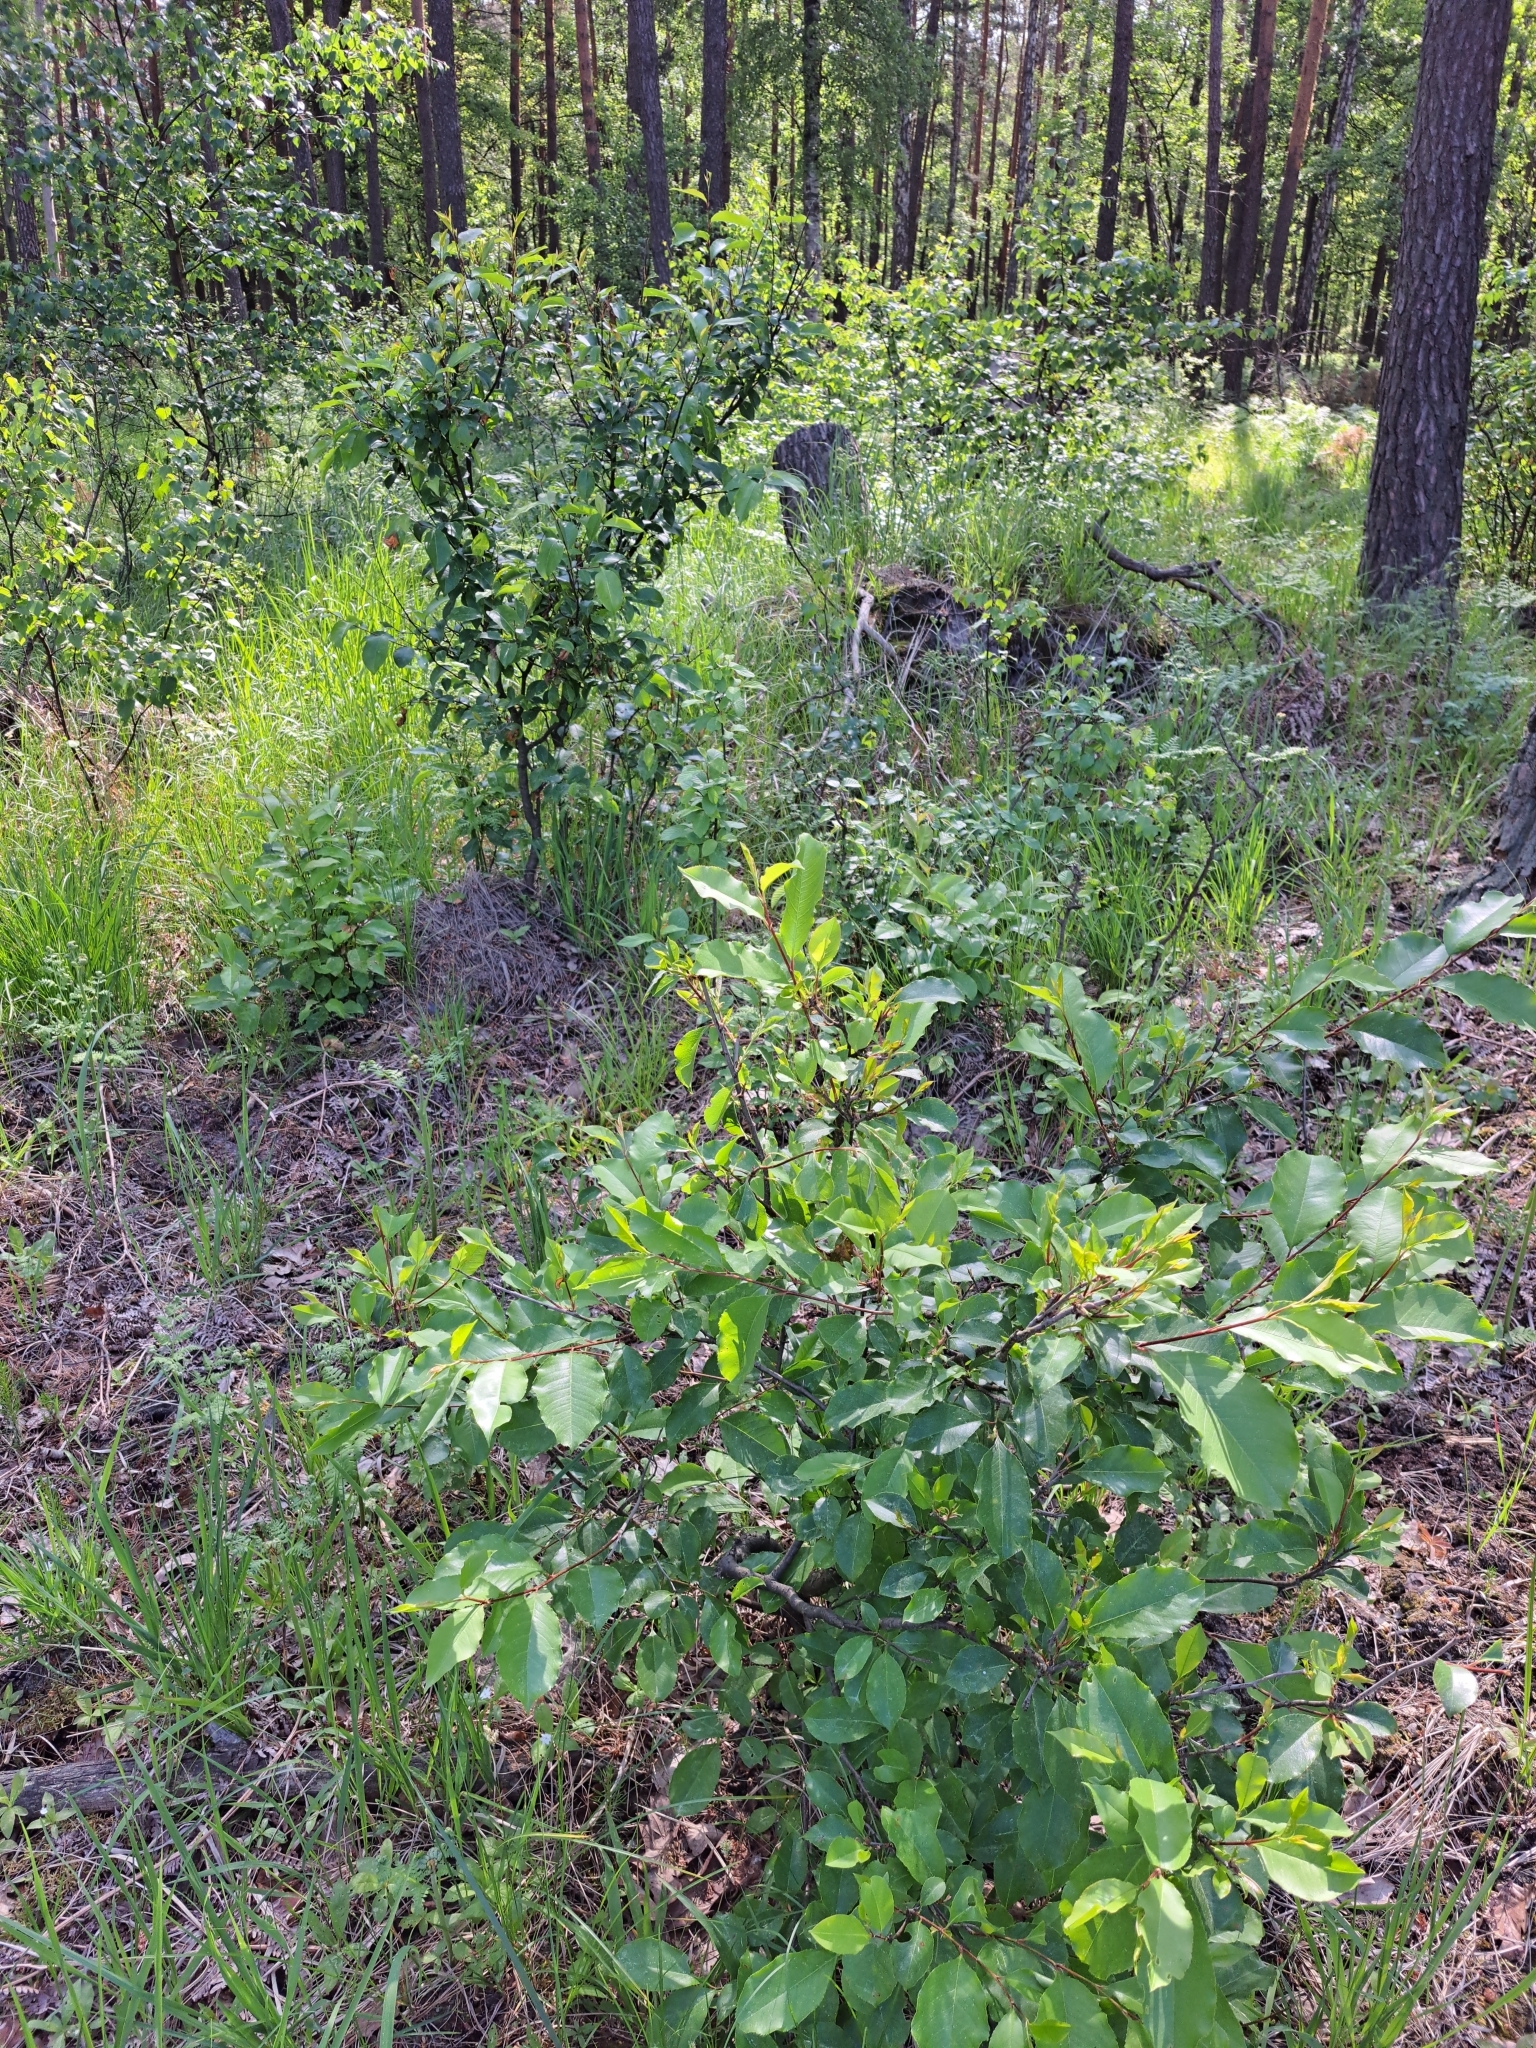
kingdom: Plantae
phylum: Tracheophyta
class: Magnoliopsida
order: Rosales
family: Rosaceae
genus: Prunus
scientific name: Prunus serotina
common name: Black cherry
